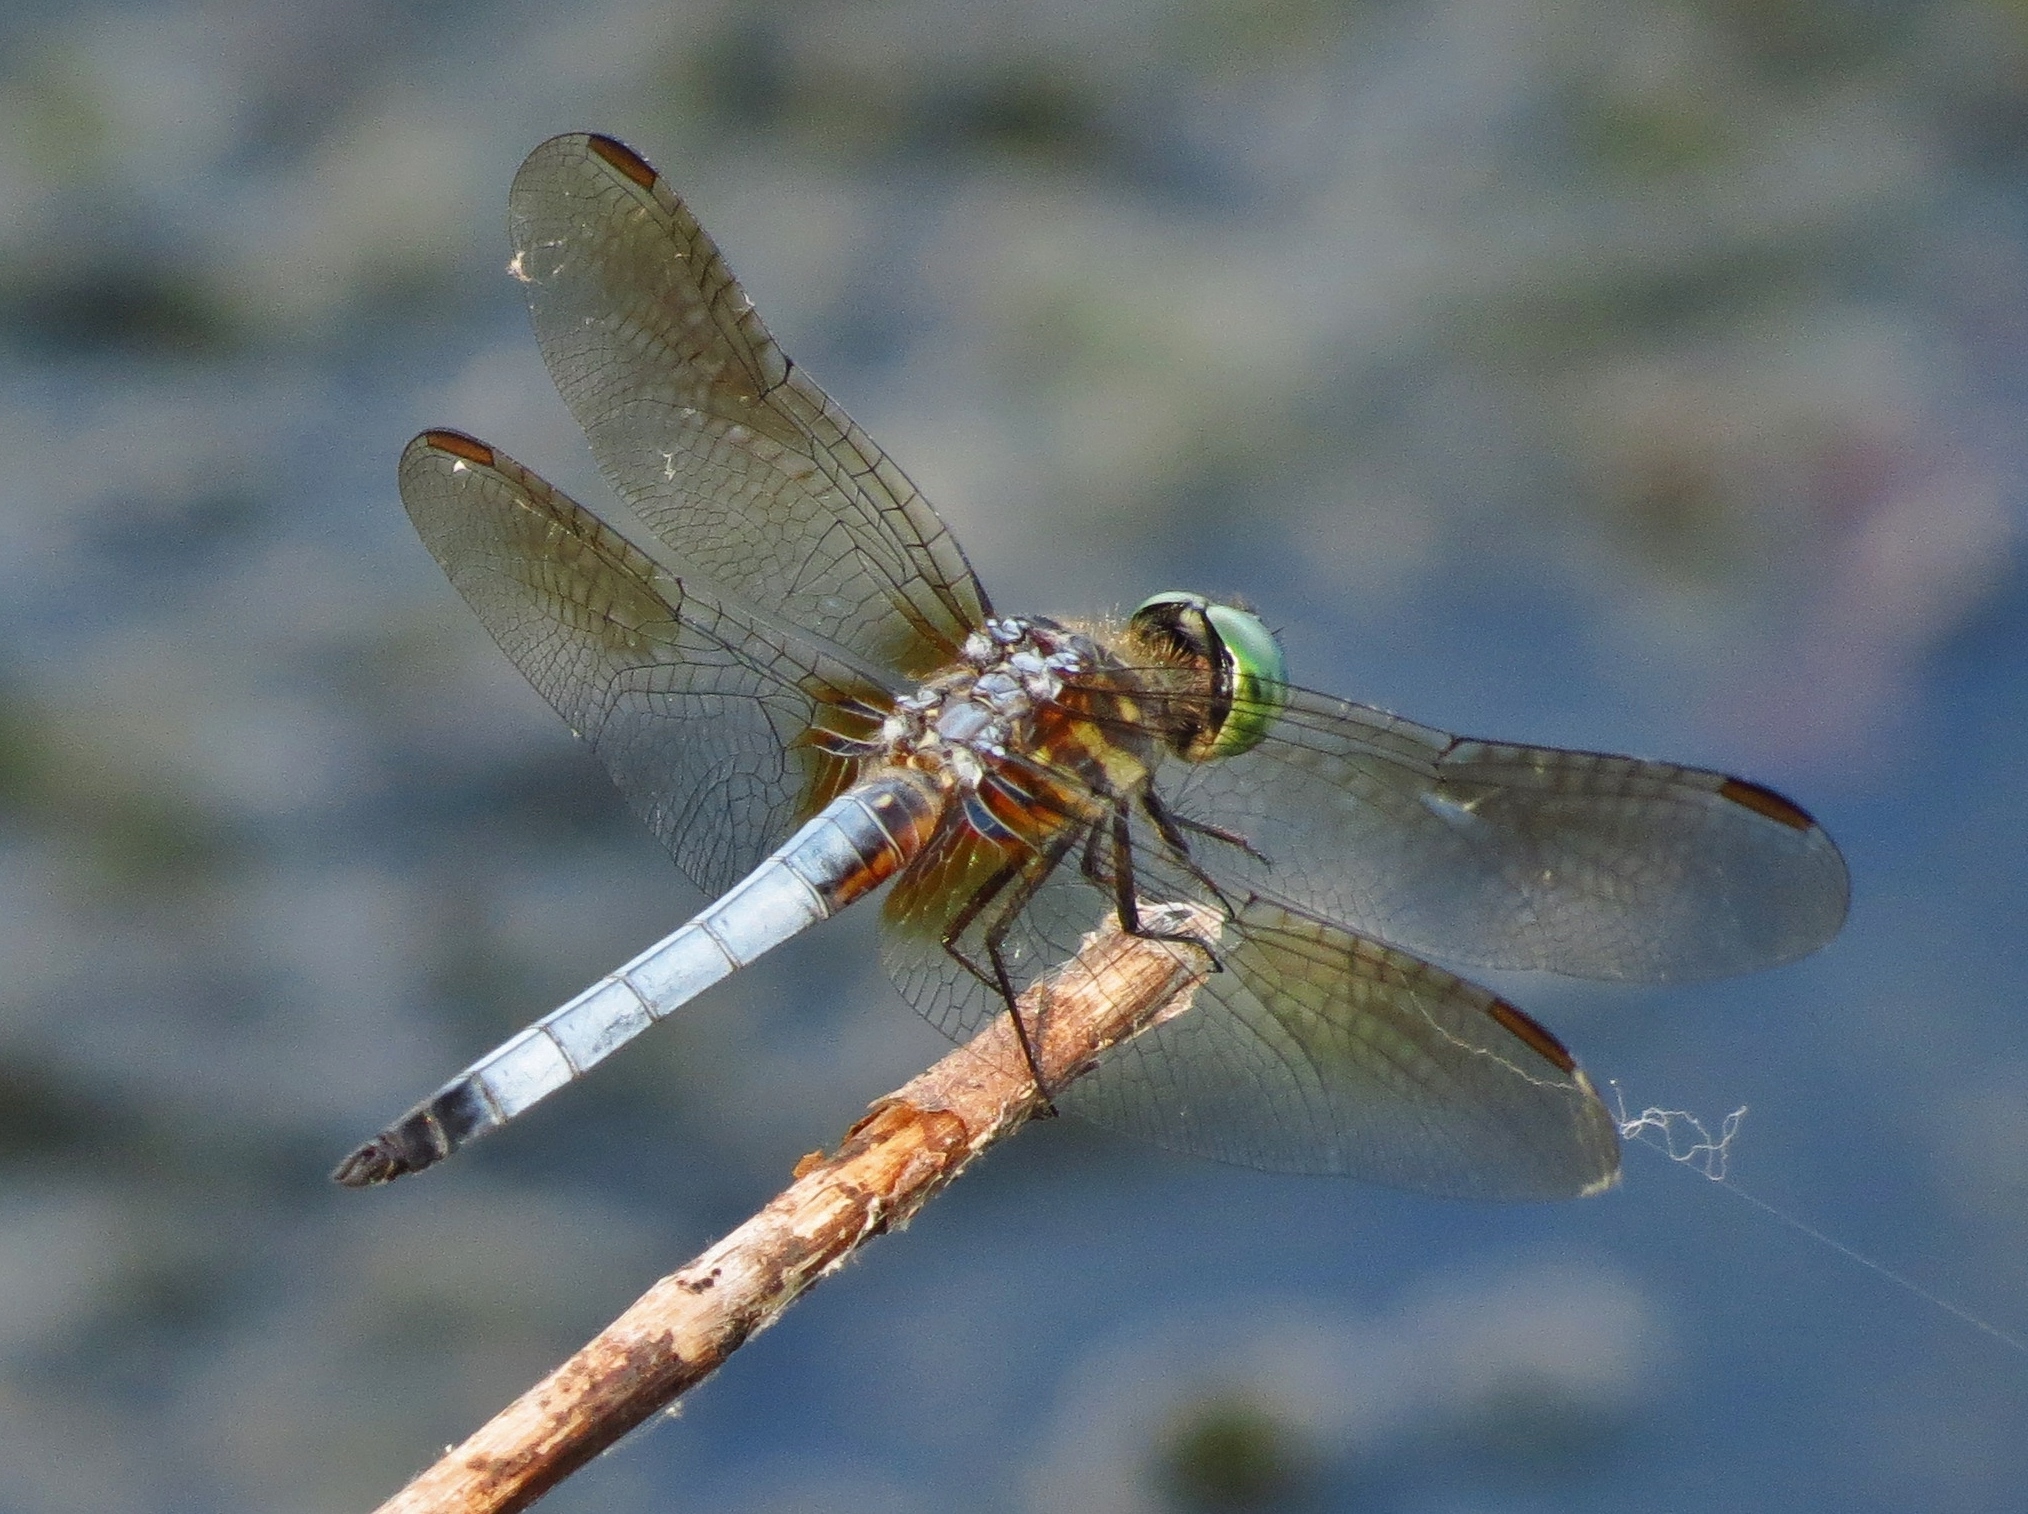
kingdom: Animalia
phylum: Arthropoda
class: Insecta
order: Odonata
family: Libellulidae
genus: Pachydiplax
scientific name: Pachydiplax longipennis
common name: Blue dasher
